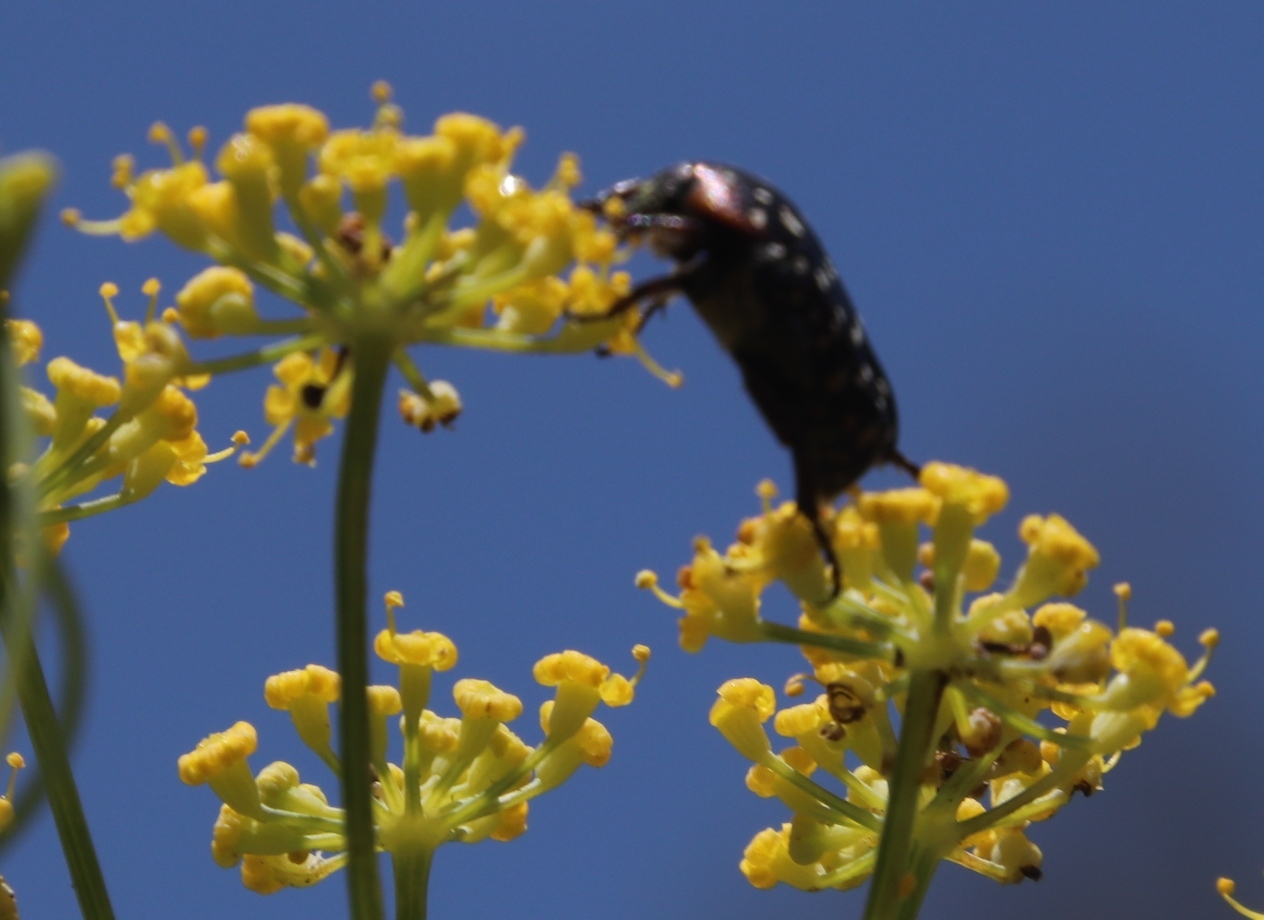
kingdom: Animalia
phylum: Arthropoda
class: Insecta
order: Coleoptera
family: Scarabaeidae
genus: Oxythyrea
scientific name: Oxythyrea
